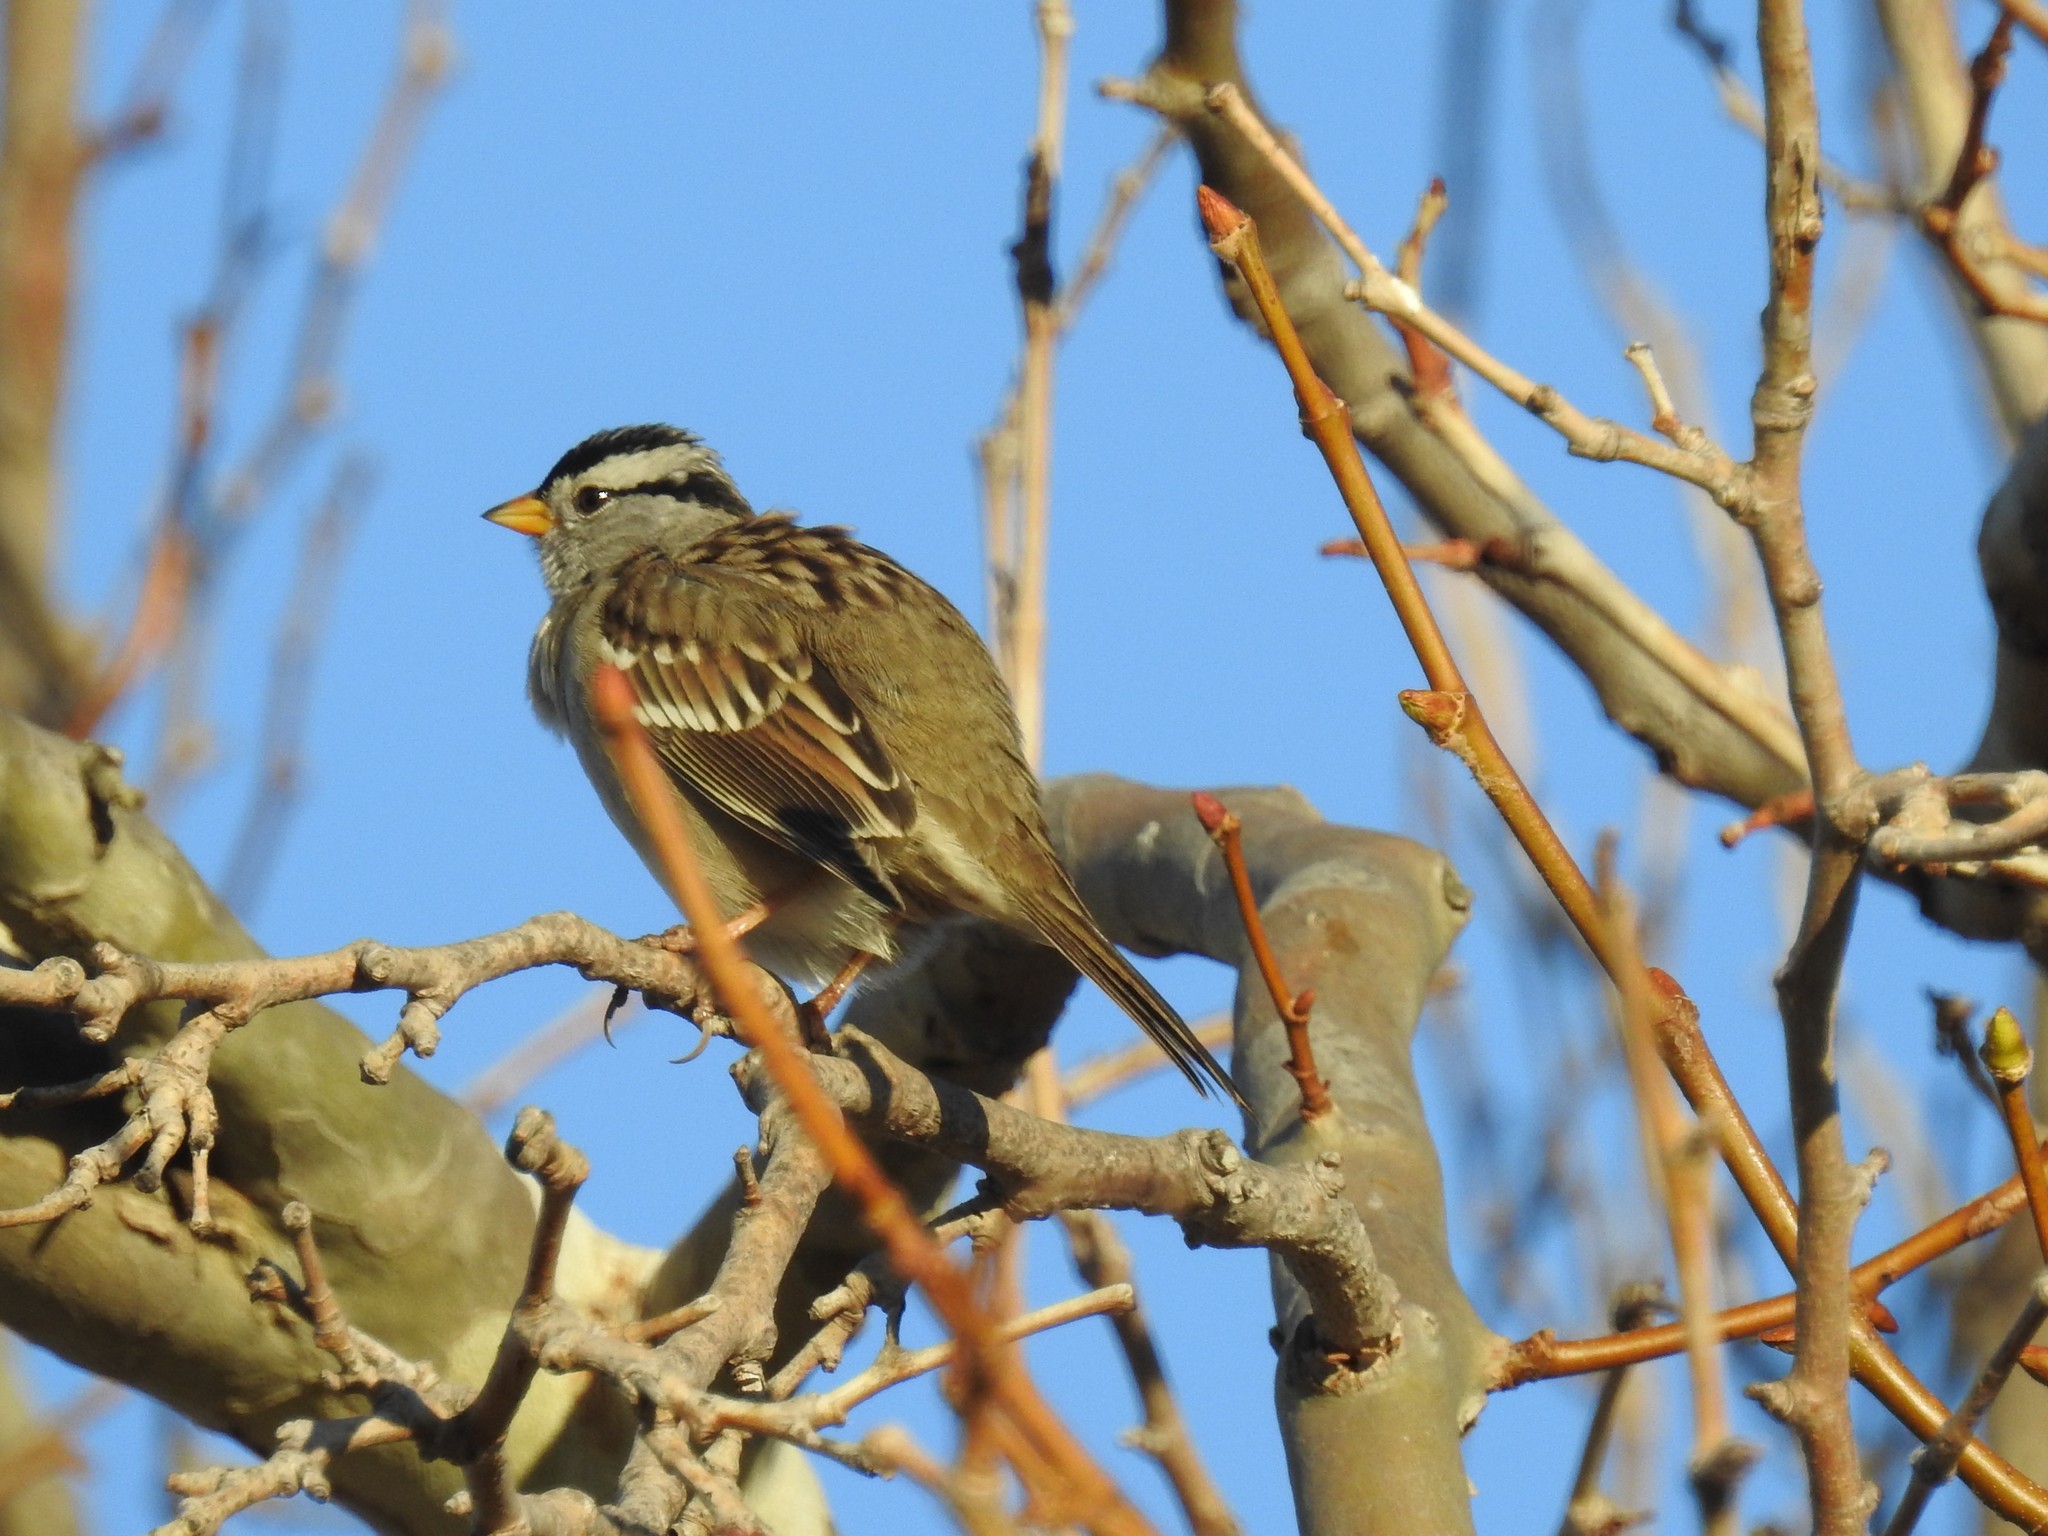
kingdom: Animalia
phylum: Chordata
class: Aves
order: Passeriformes
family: Passerellidae
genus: Zonotrichia
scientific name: Zonotrichia leucophrys
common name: White-crowned sparrow
